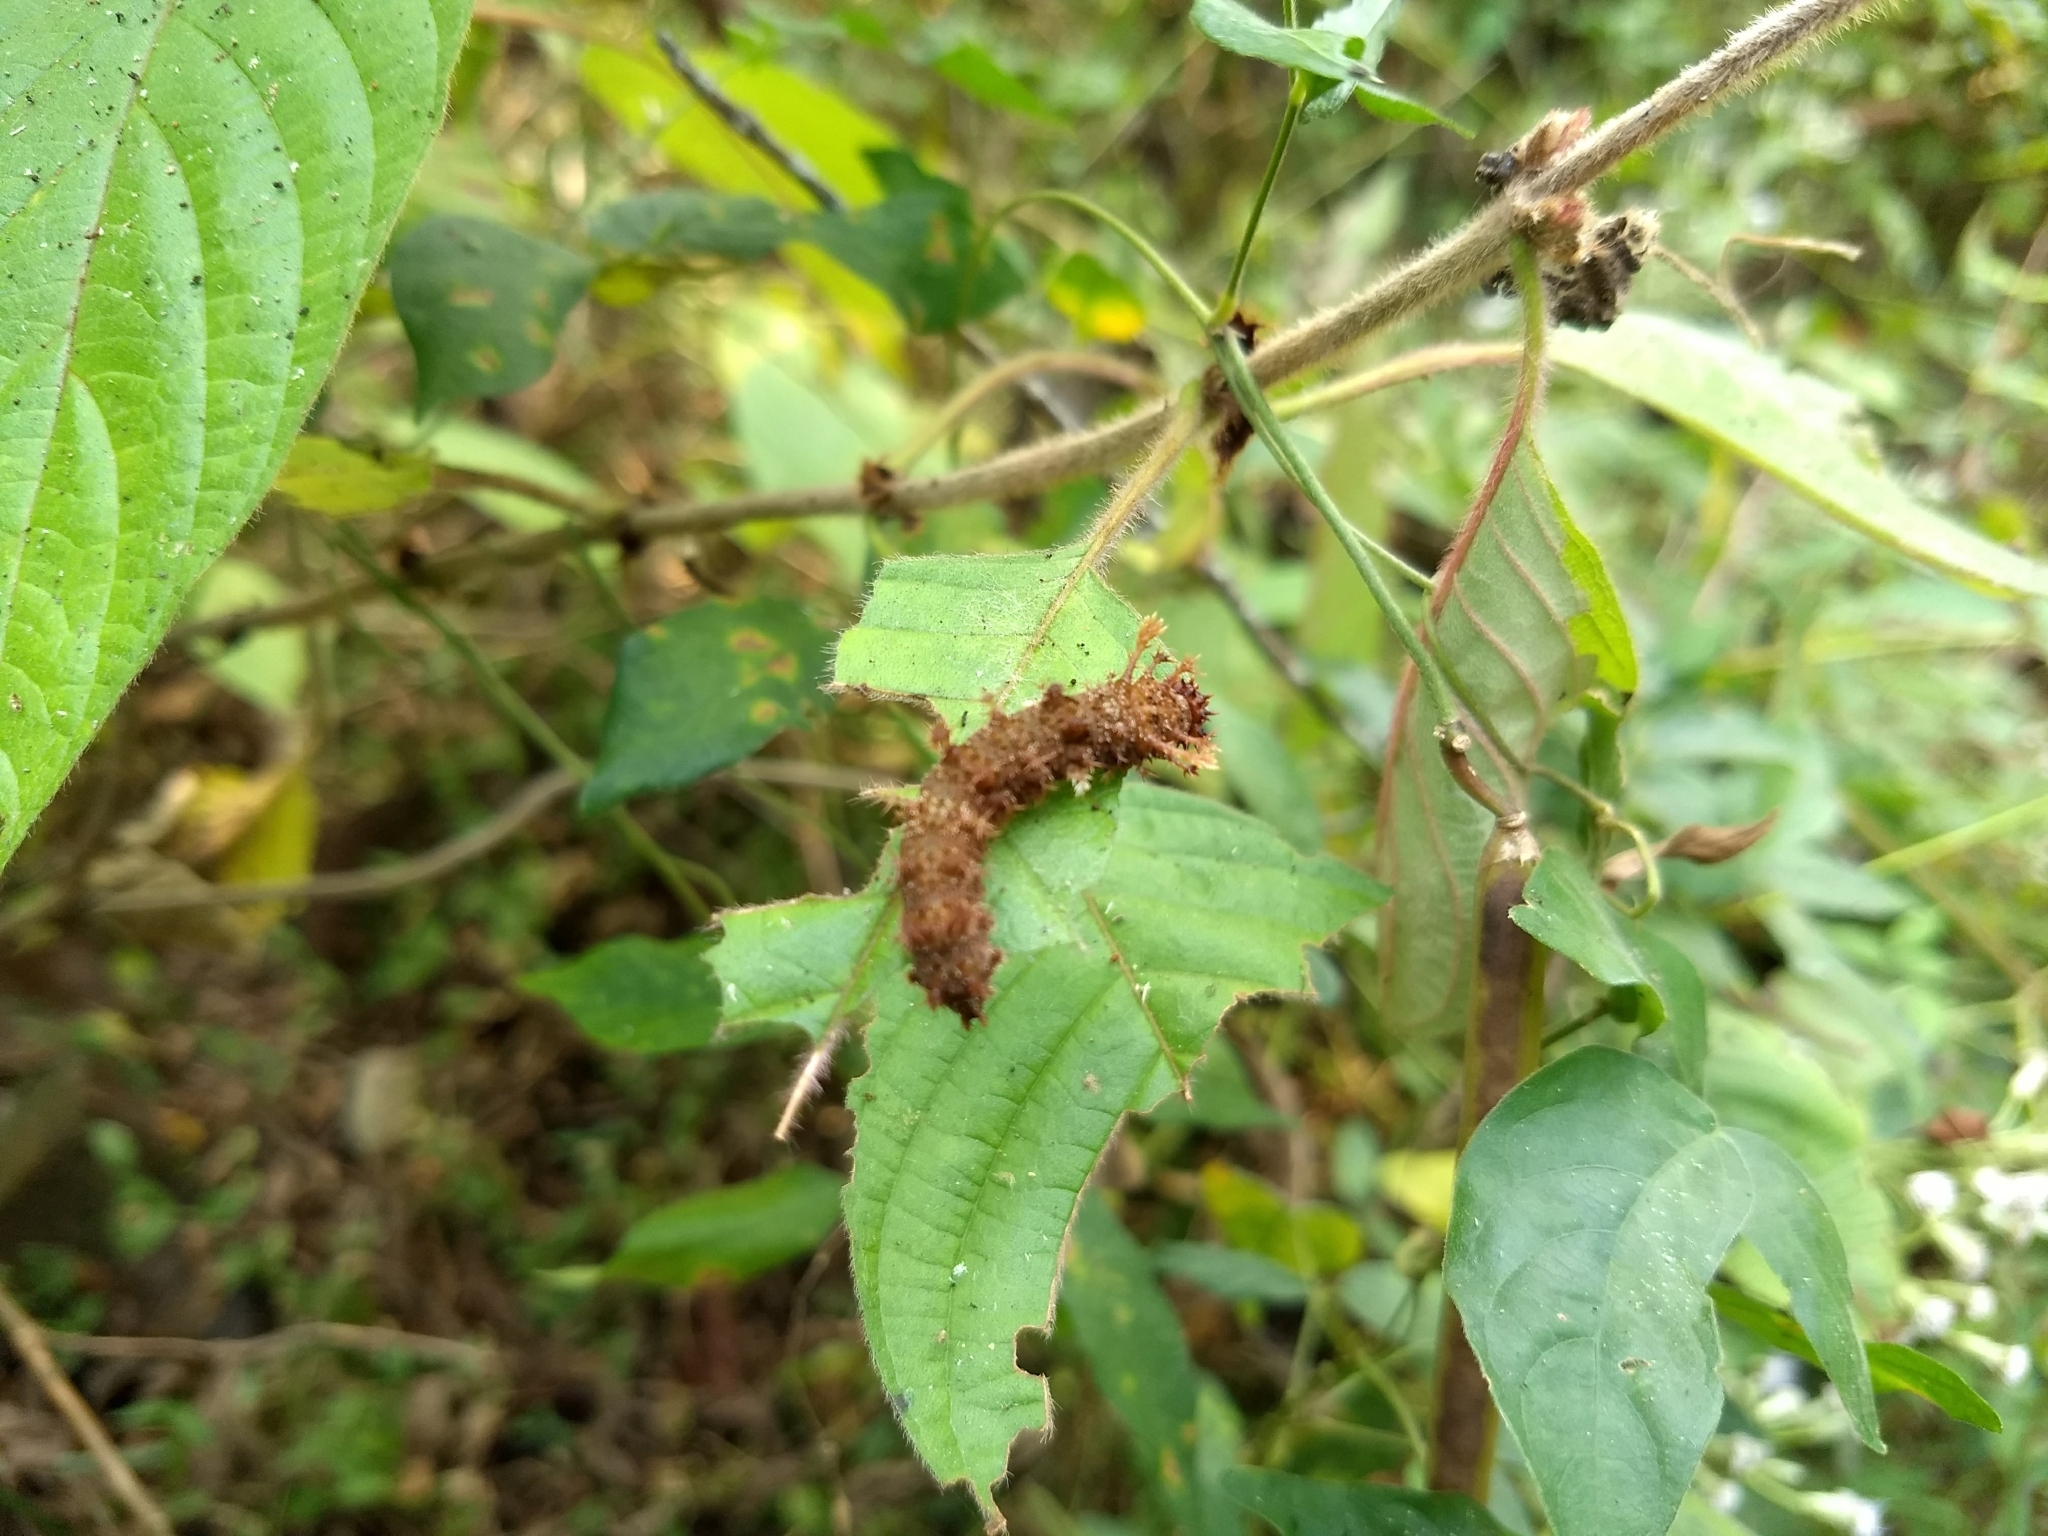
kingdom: Animalia
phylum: Arthropoda
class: Insecta
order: Lepidoptera
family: Nymphalidae
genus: Limenitis
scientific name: Limenitis Moduza procris
